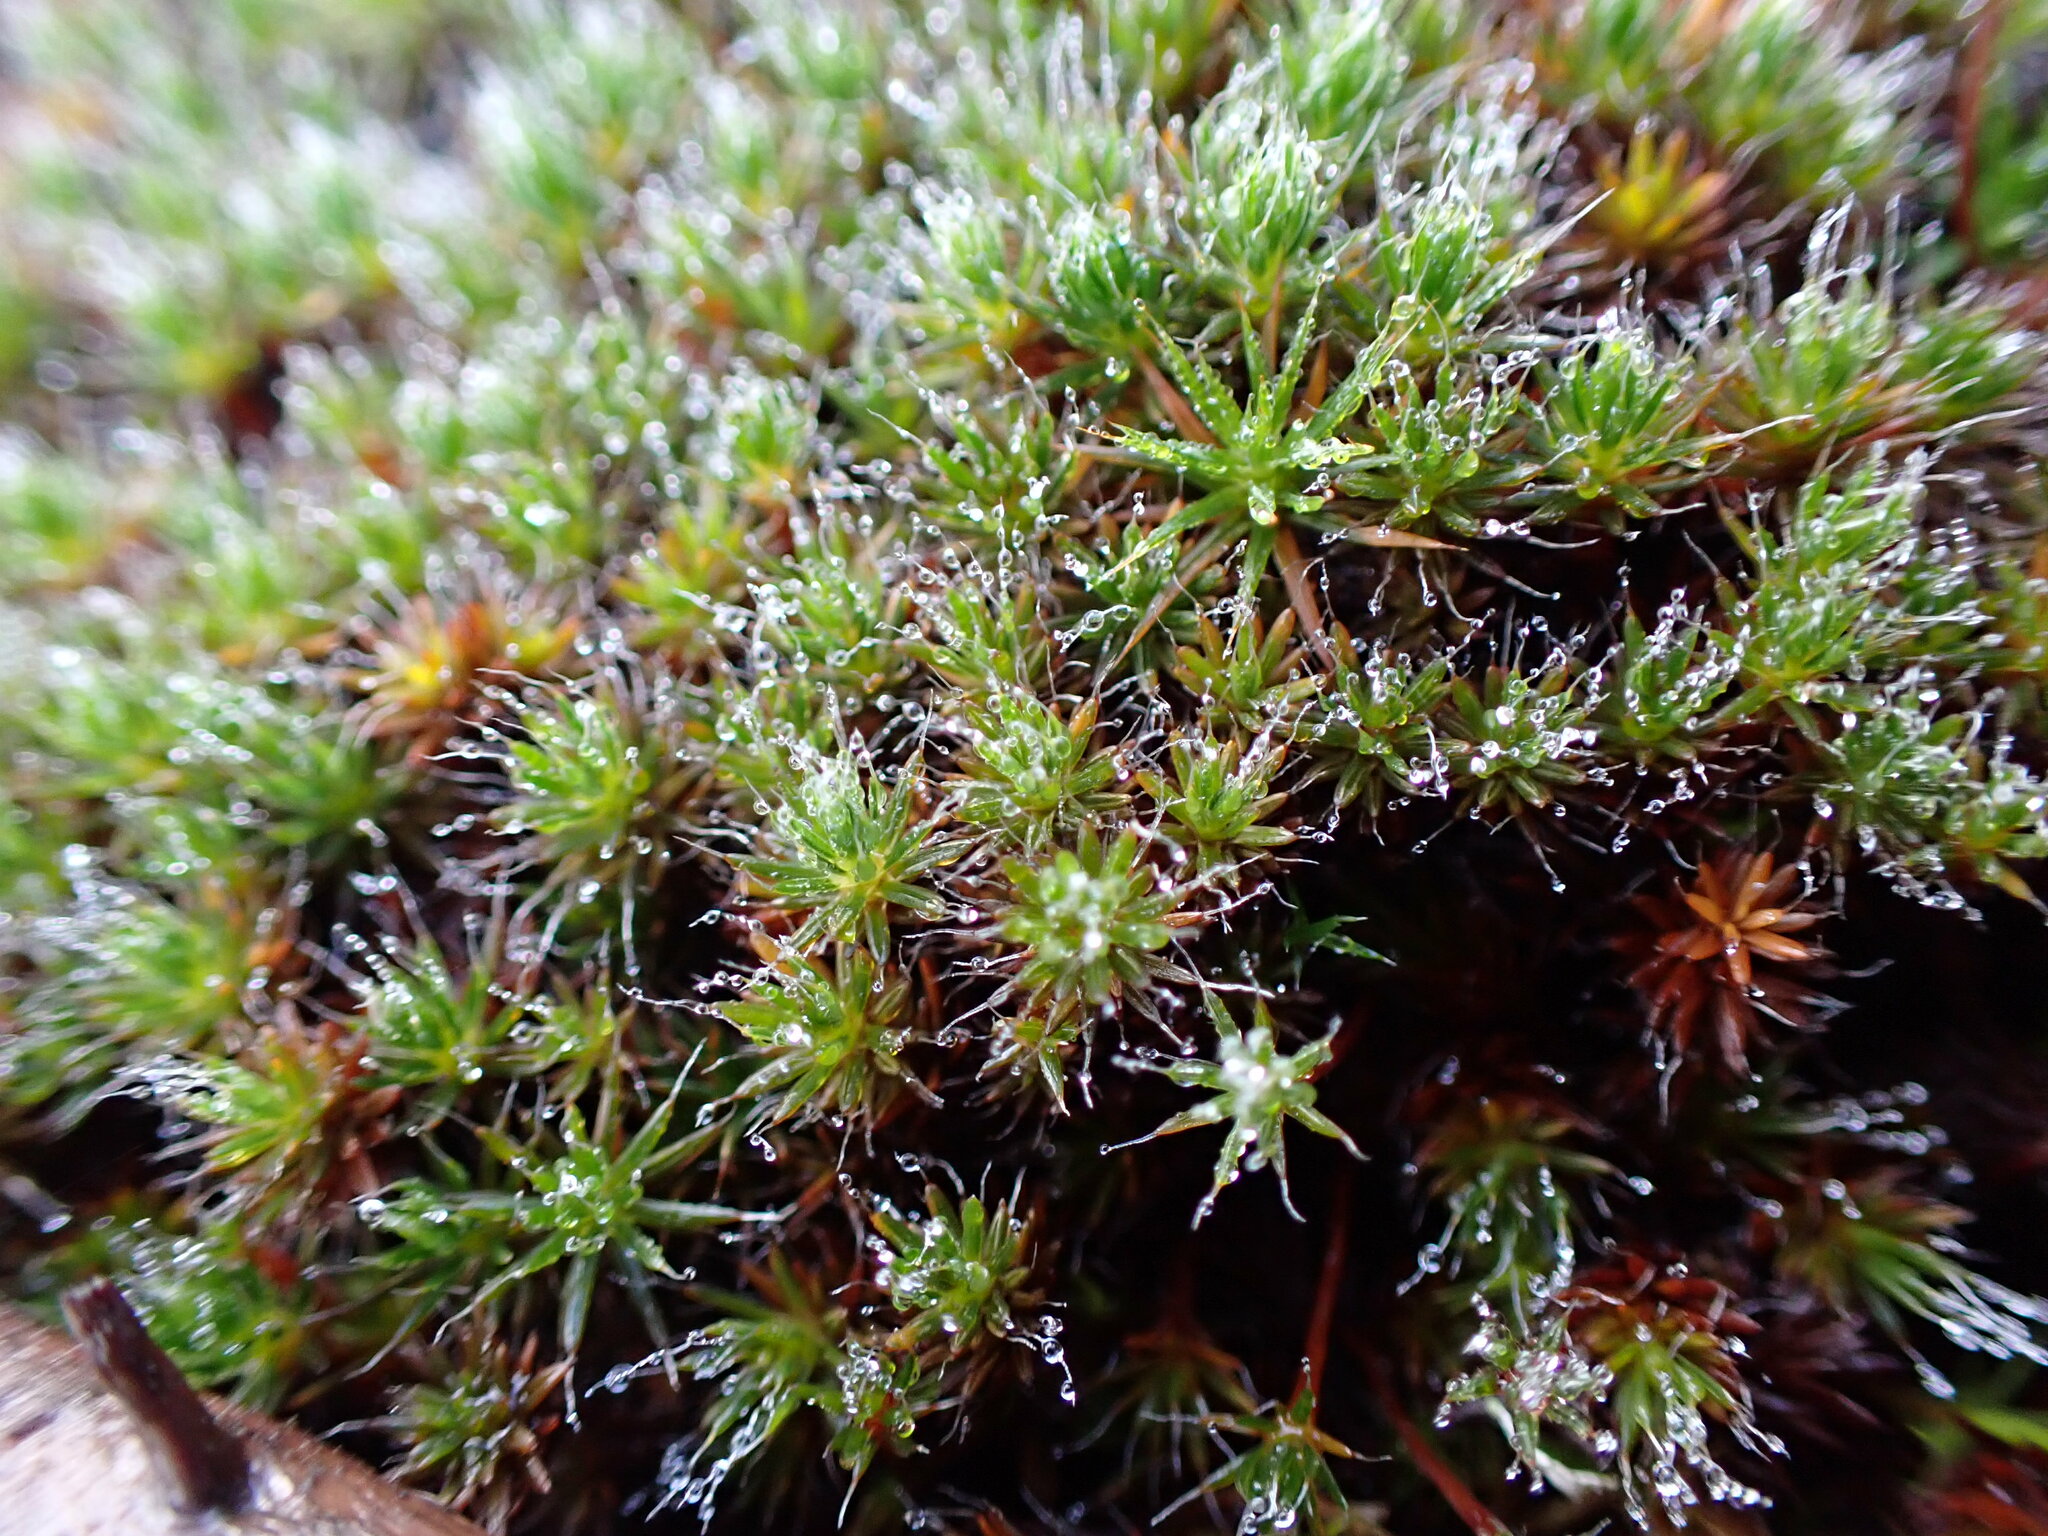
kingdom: Plantae
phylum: Bryophyta
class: Polytrichopsida
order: Polytrichales
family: Polytrichaceae
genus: Polytrichum
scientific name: Polytrichum piliferum
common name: Bristly haircap
